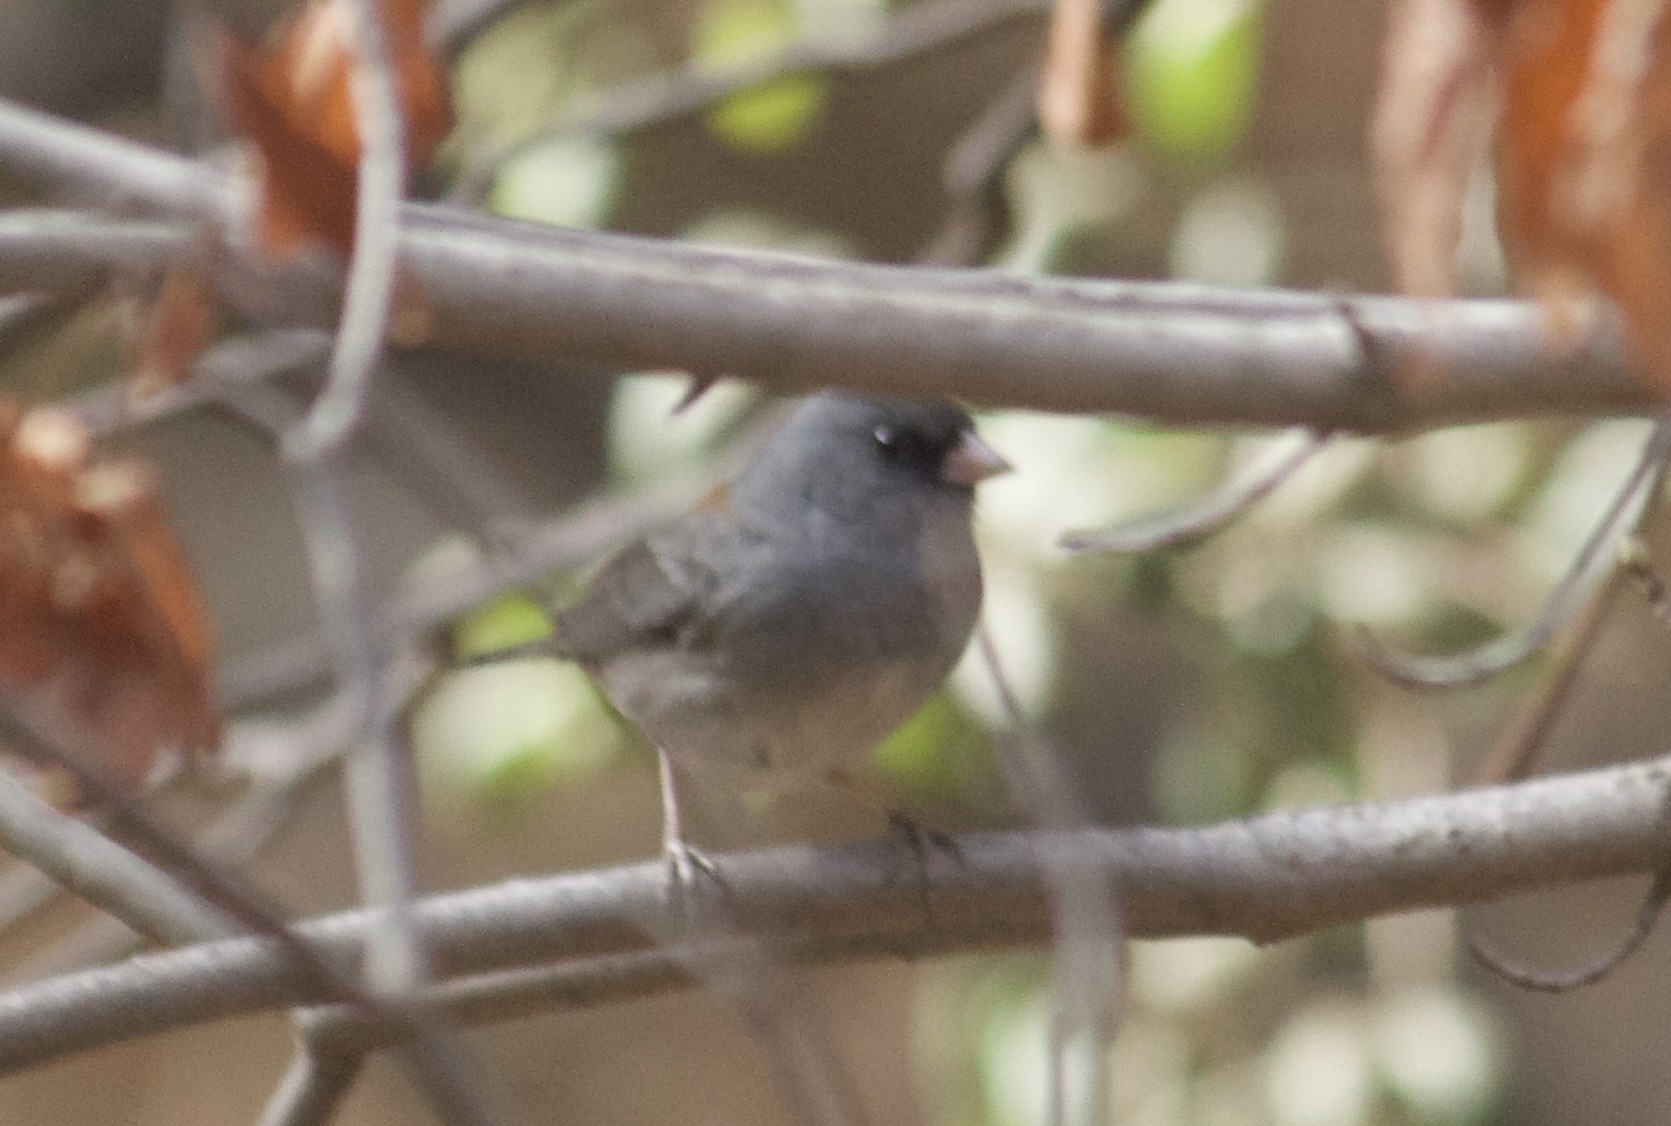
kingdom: Animalia
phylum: Chordata
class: Aves
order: Passeriformes
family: Passerellidae
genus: Junco
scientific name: Junco hyemalis
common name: Dark-eyed junco
